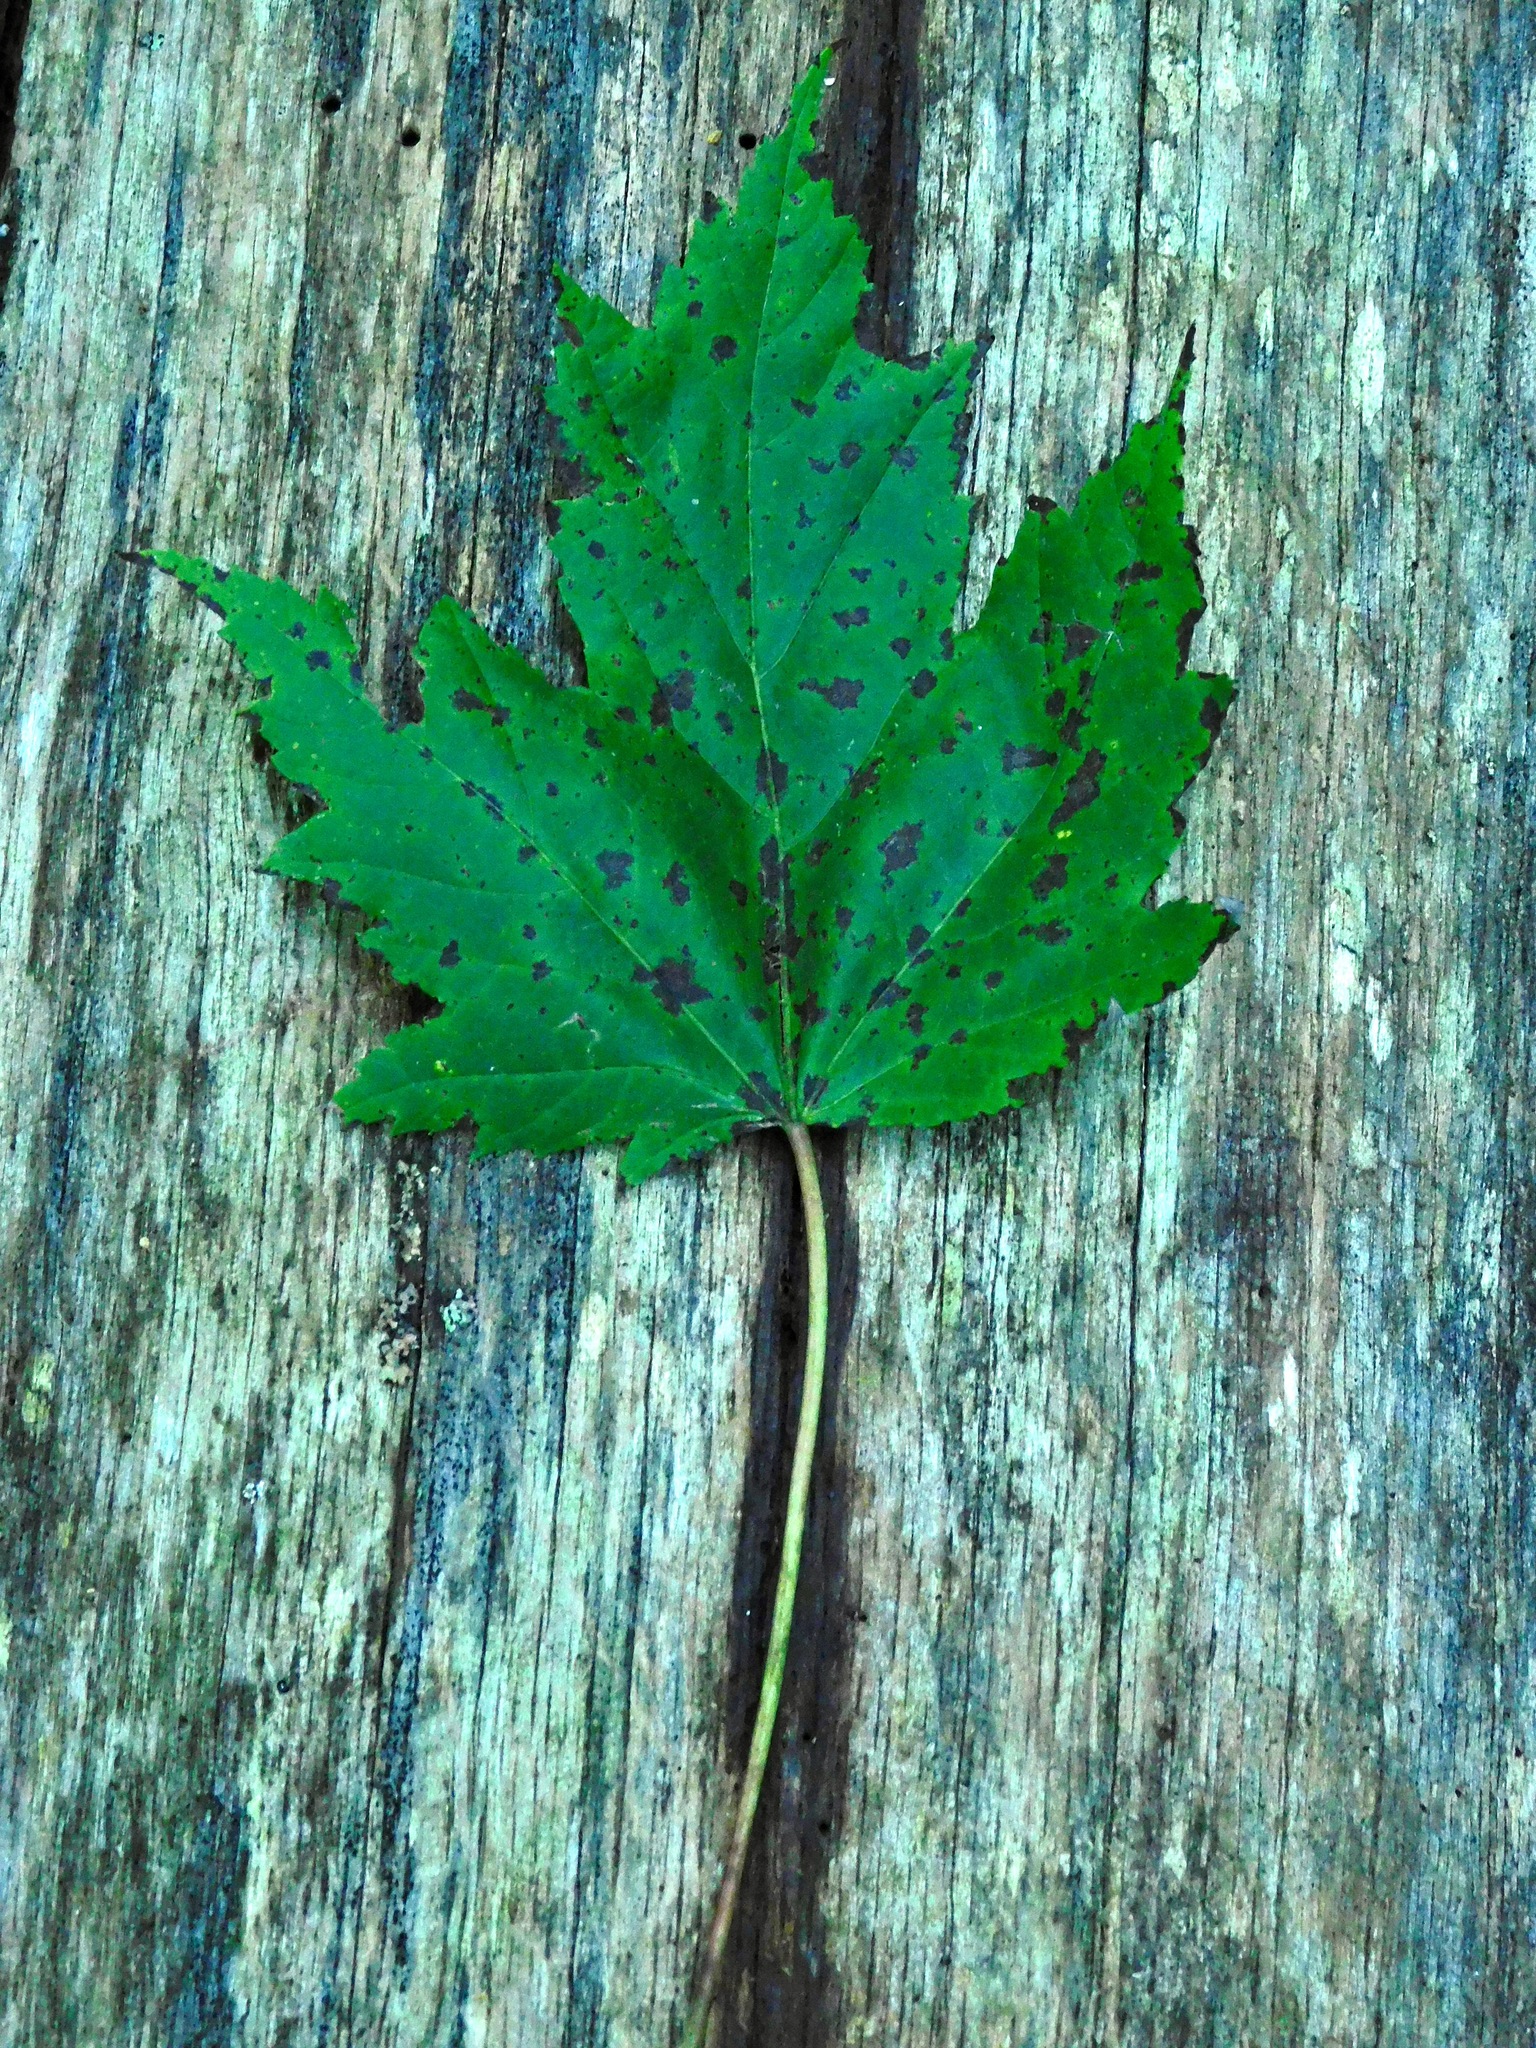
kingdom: Plantae
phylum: Tracheophyta
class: Magnoliopsida
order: Sapindales
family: Sapindaceae
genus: Acer
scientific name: Acer freemanii
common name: Freeman maple
